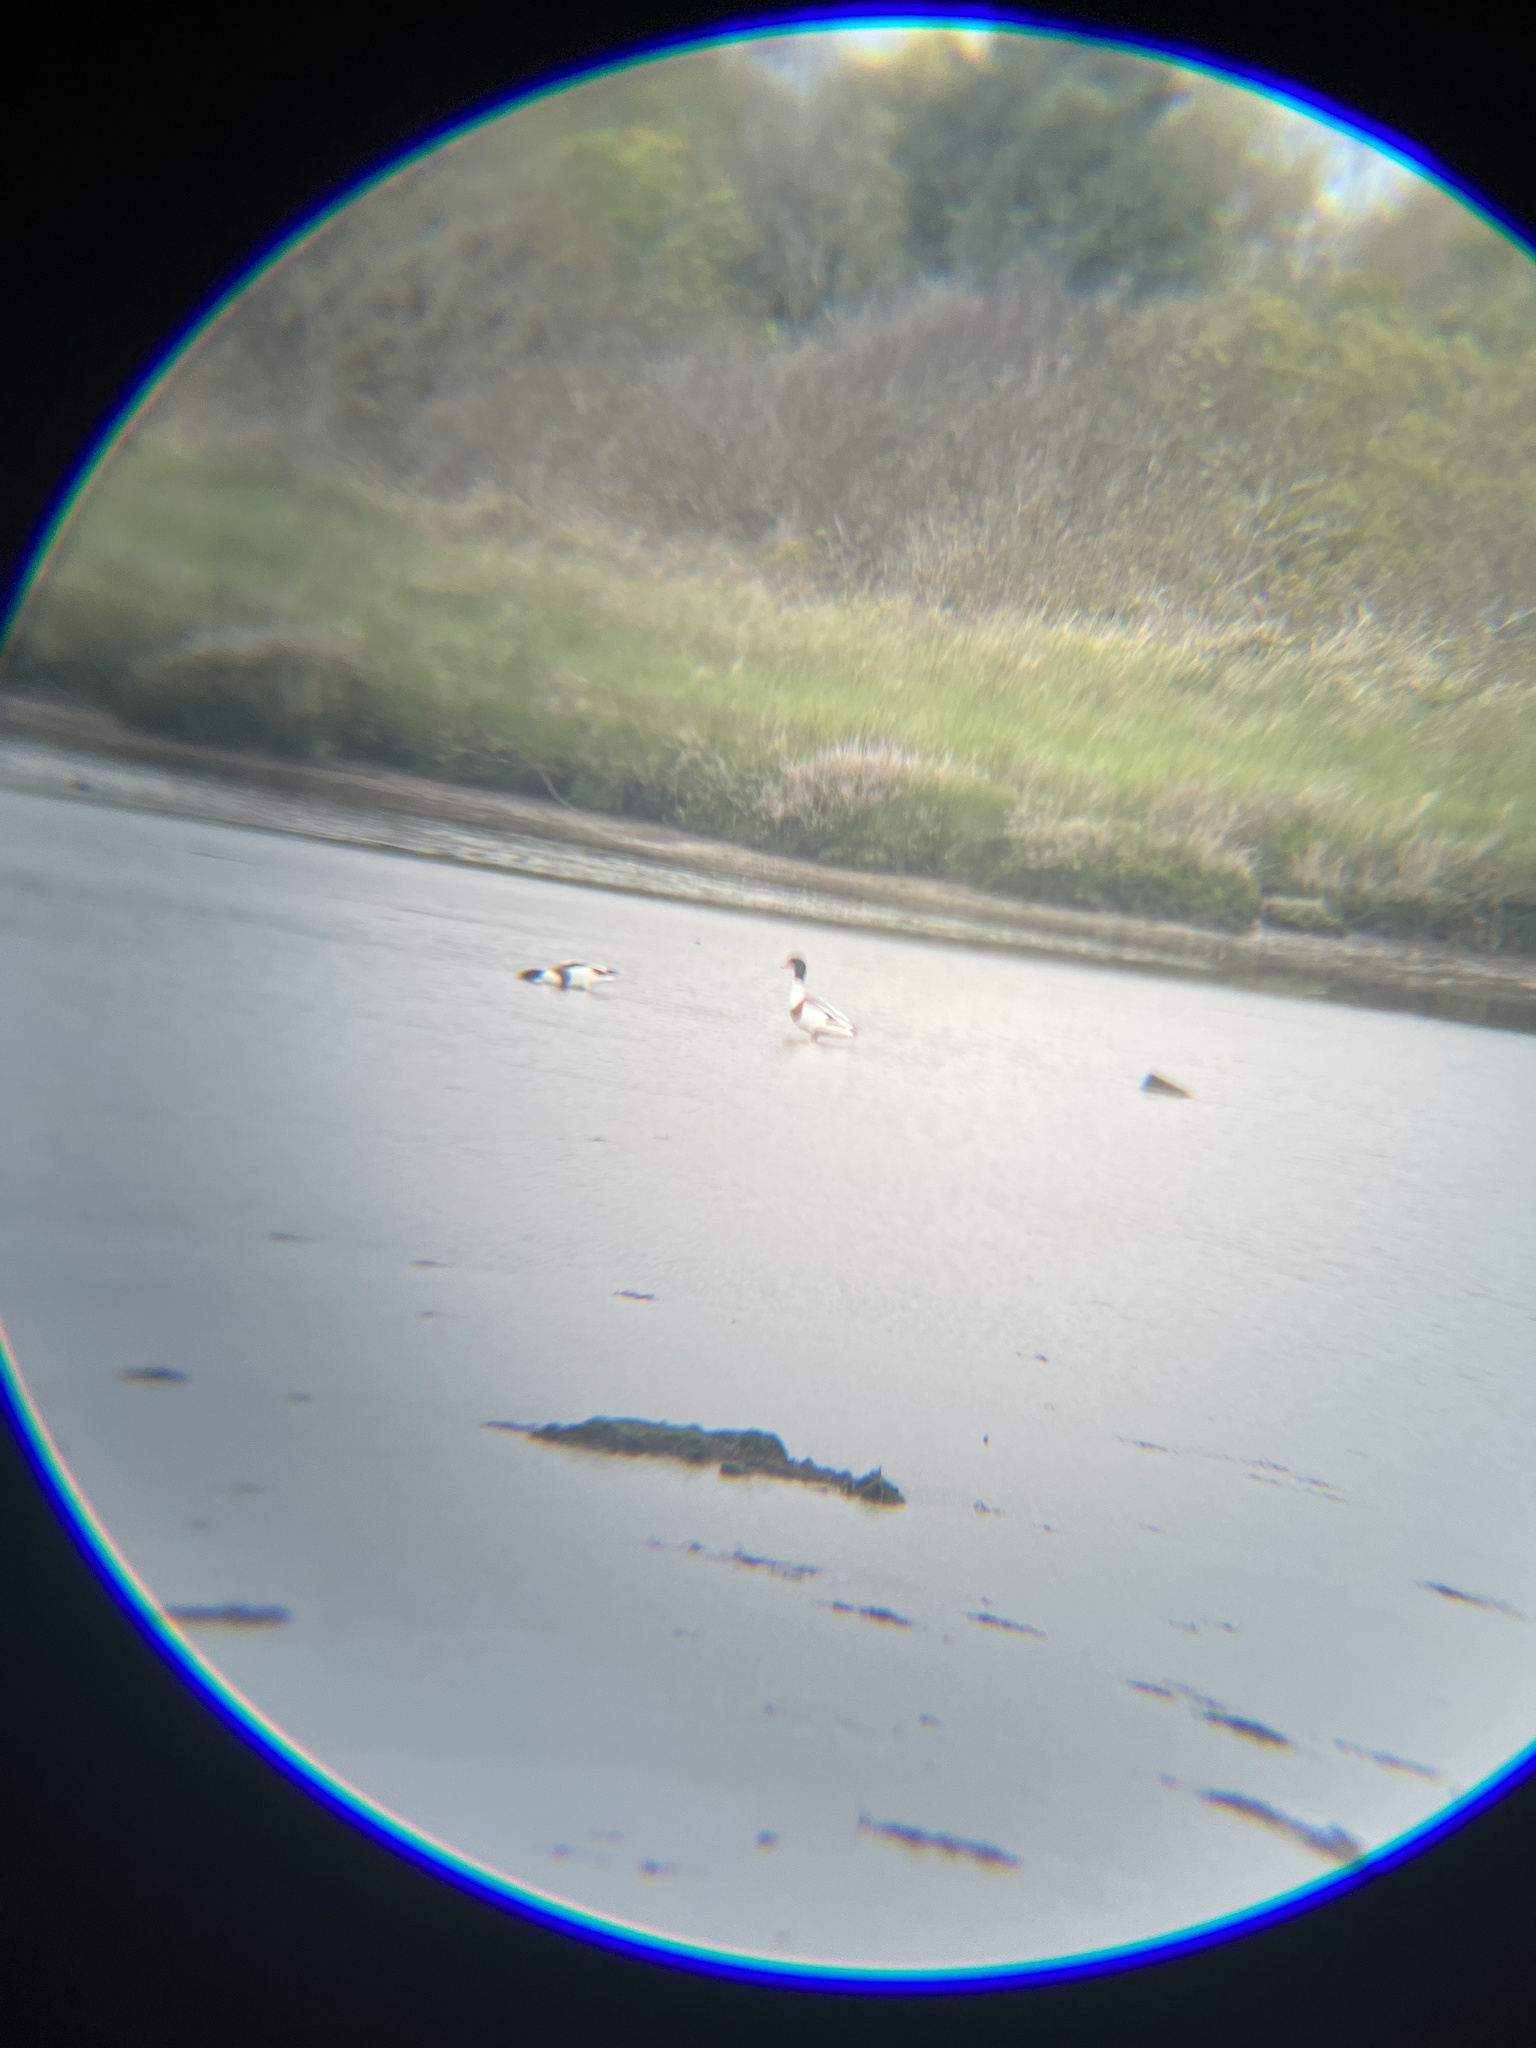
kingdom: Animalia
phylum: Chordata
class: Aves
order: Anseriformes
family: Anatidae
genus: Tadorna
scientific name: Tadorna tadorna
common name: Common shelduck
